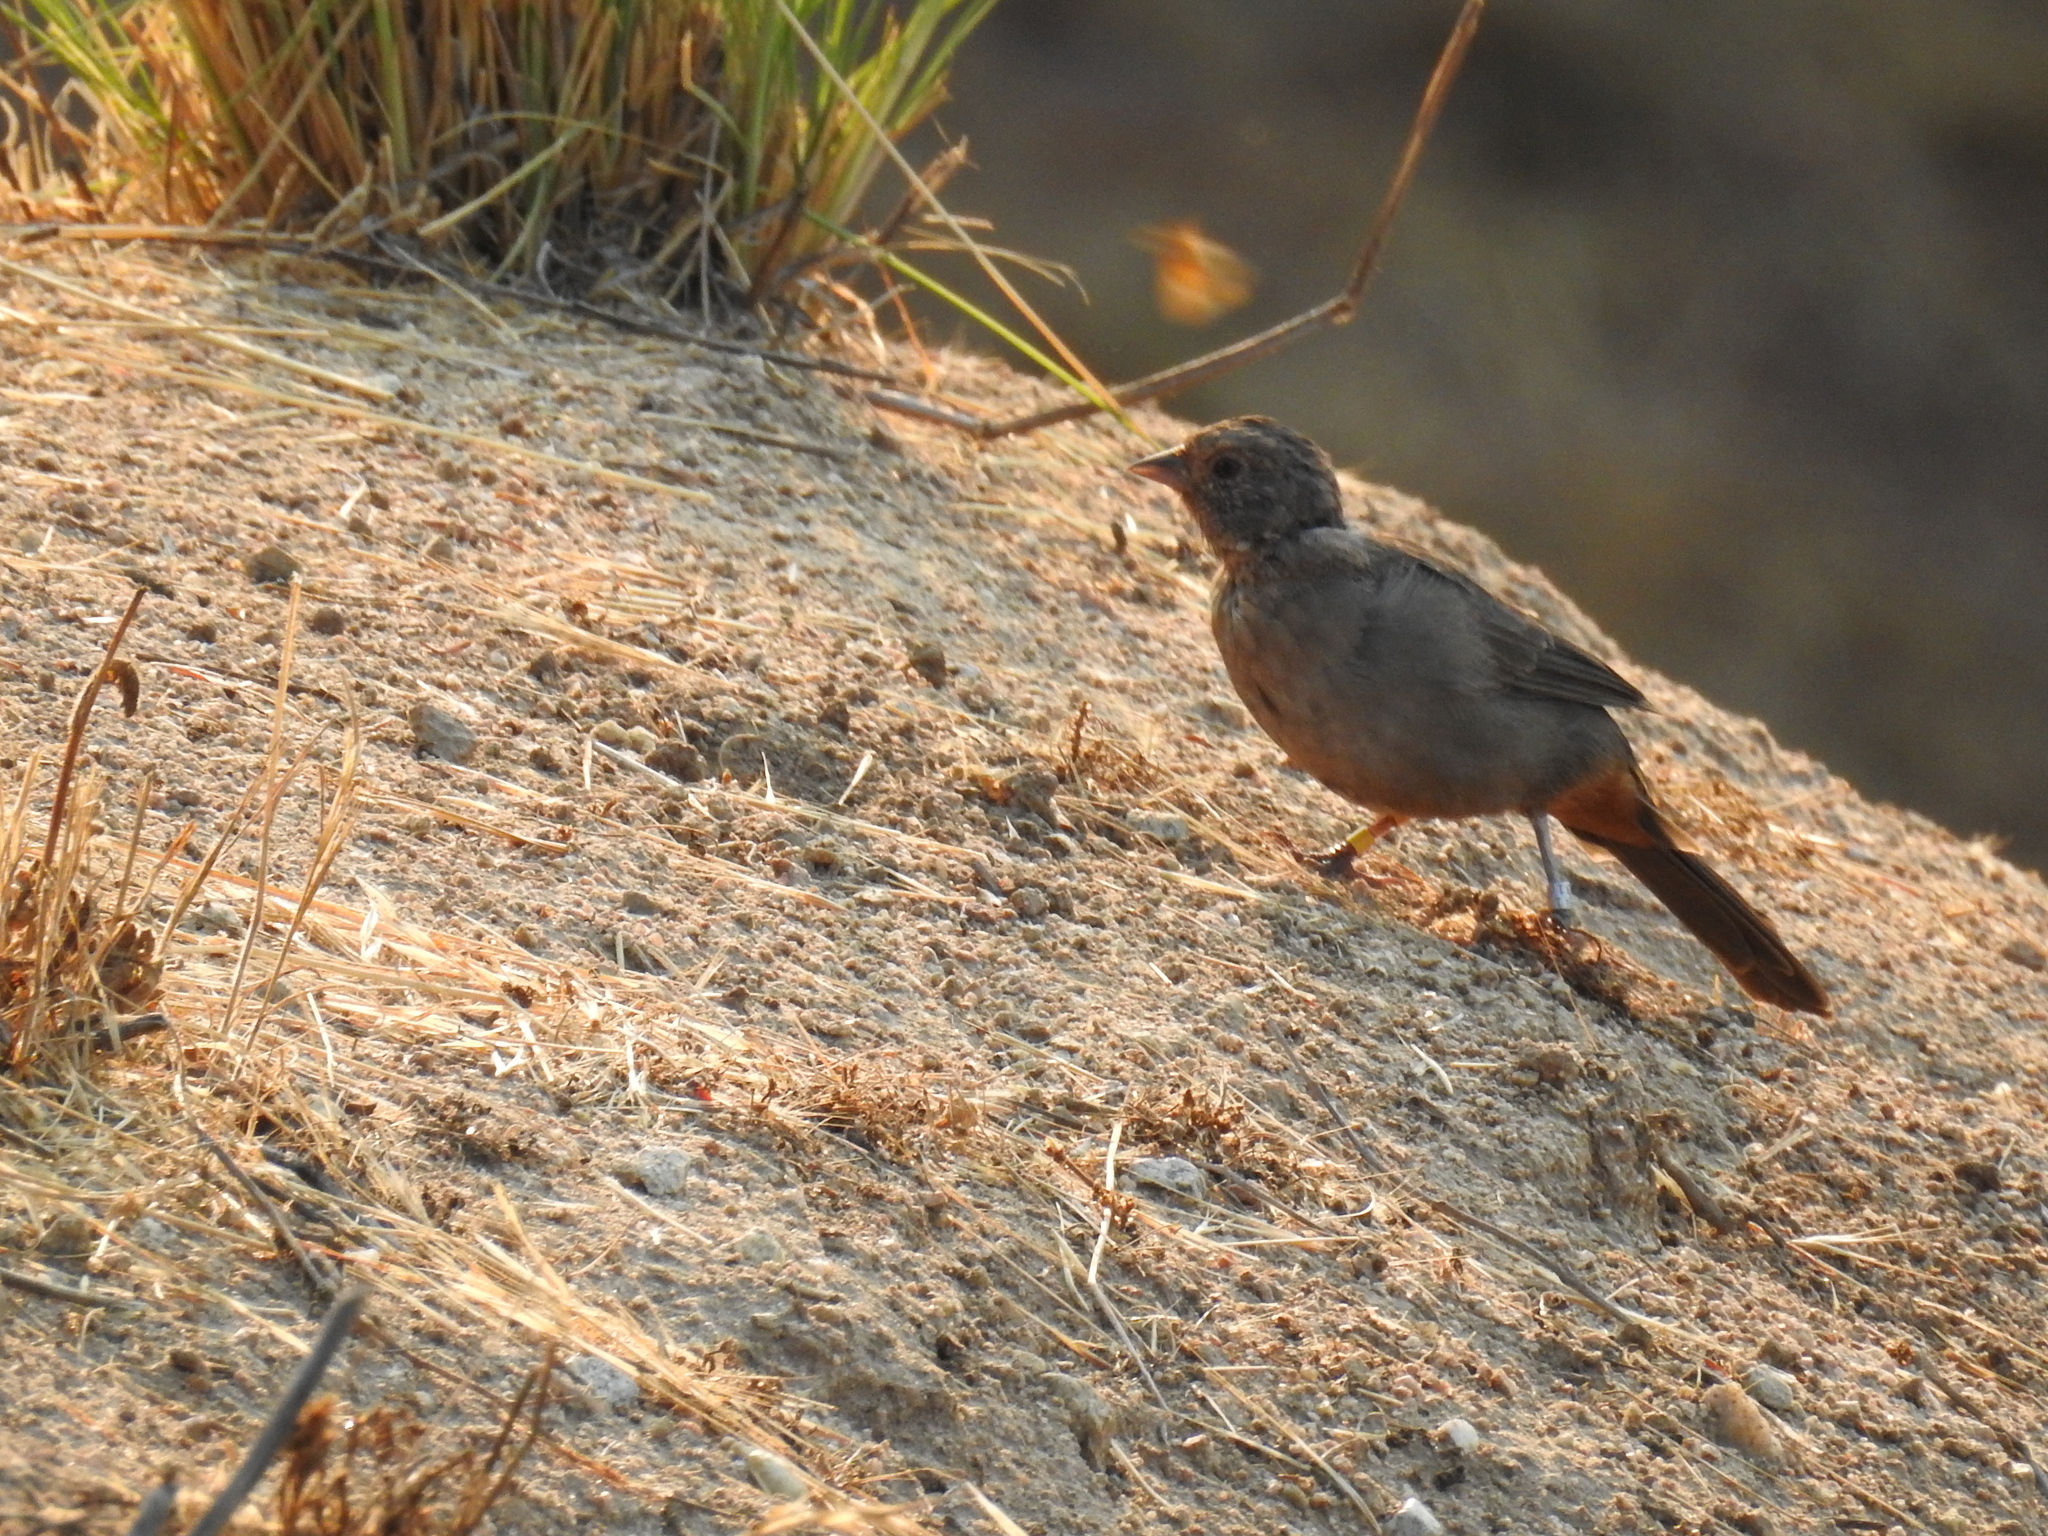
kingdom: Animalia
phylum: Chordata
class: Aves
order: Passeriformes
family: Passerellidae
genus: Melozone
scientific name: Melozone crissalis
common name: California towhee
